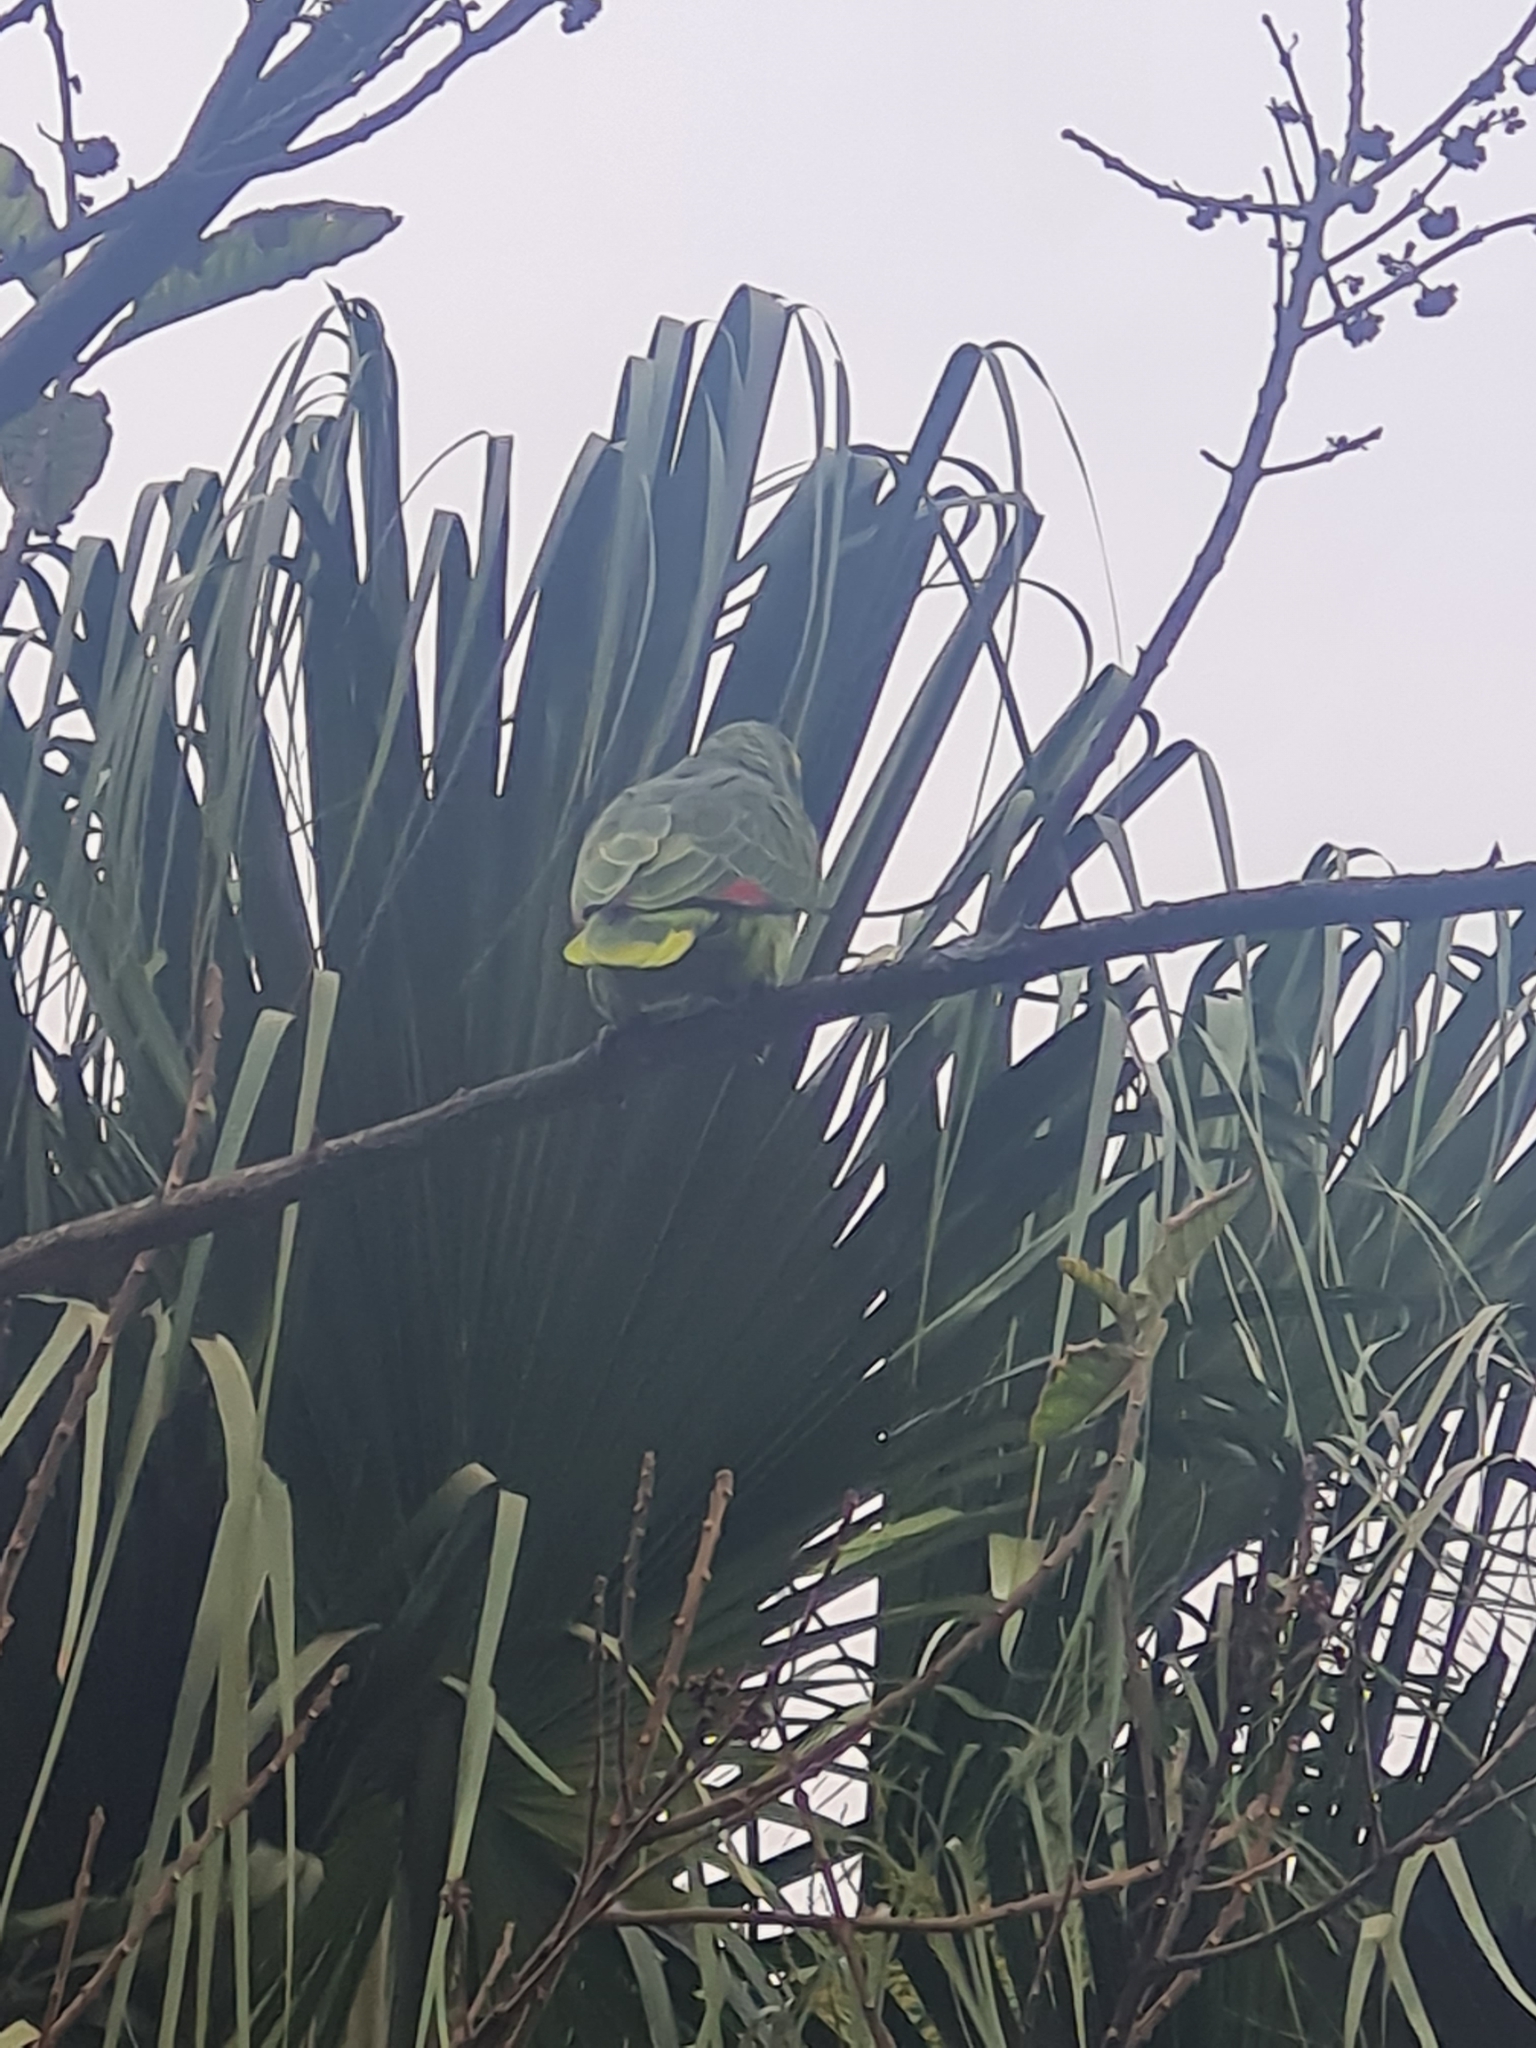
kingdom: Animalia
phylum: Chordata
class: Aves
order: Psittaciformes
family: Psittacidae
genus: Amazona
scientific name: Amazona aestiva
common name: Turquoise-fronted amazon
